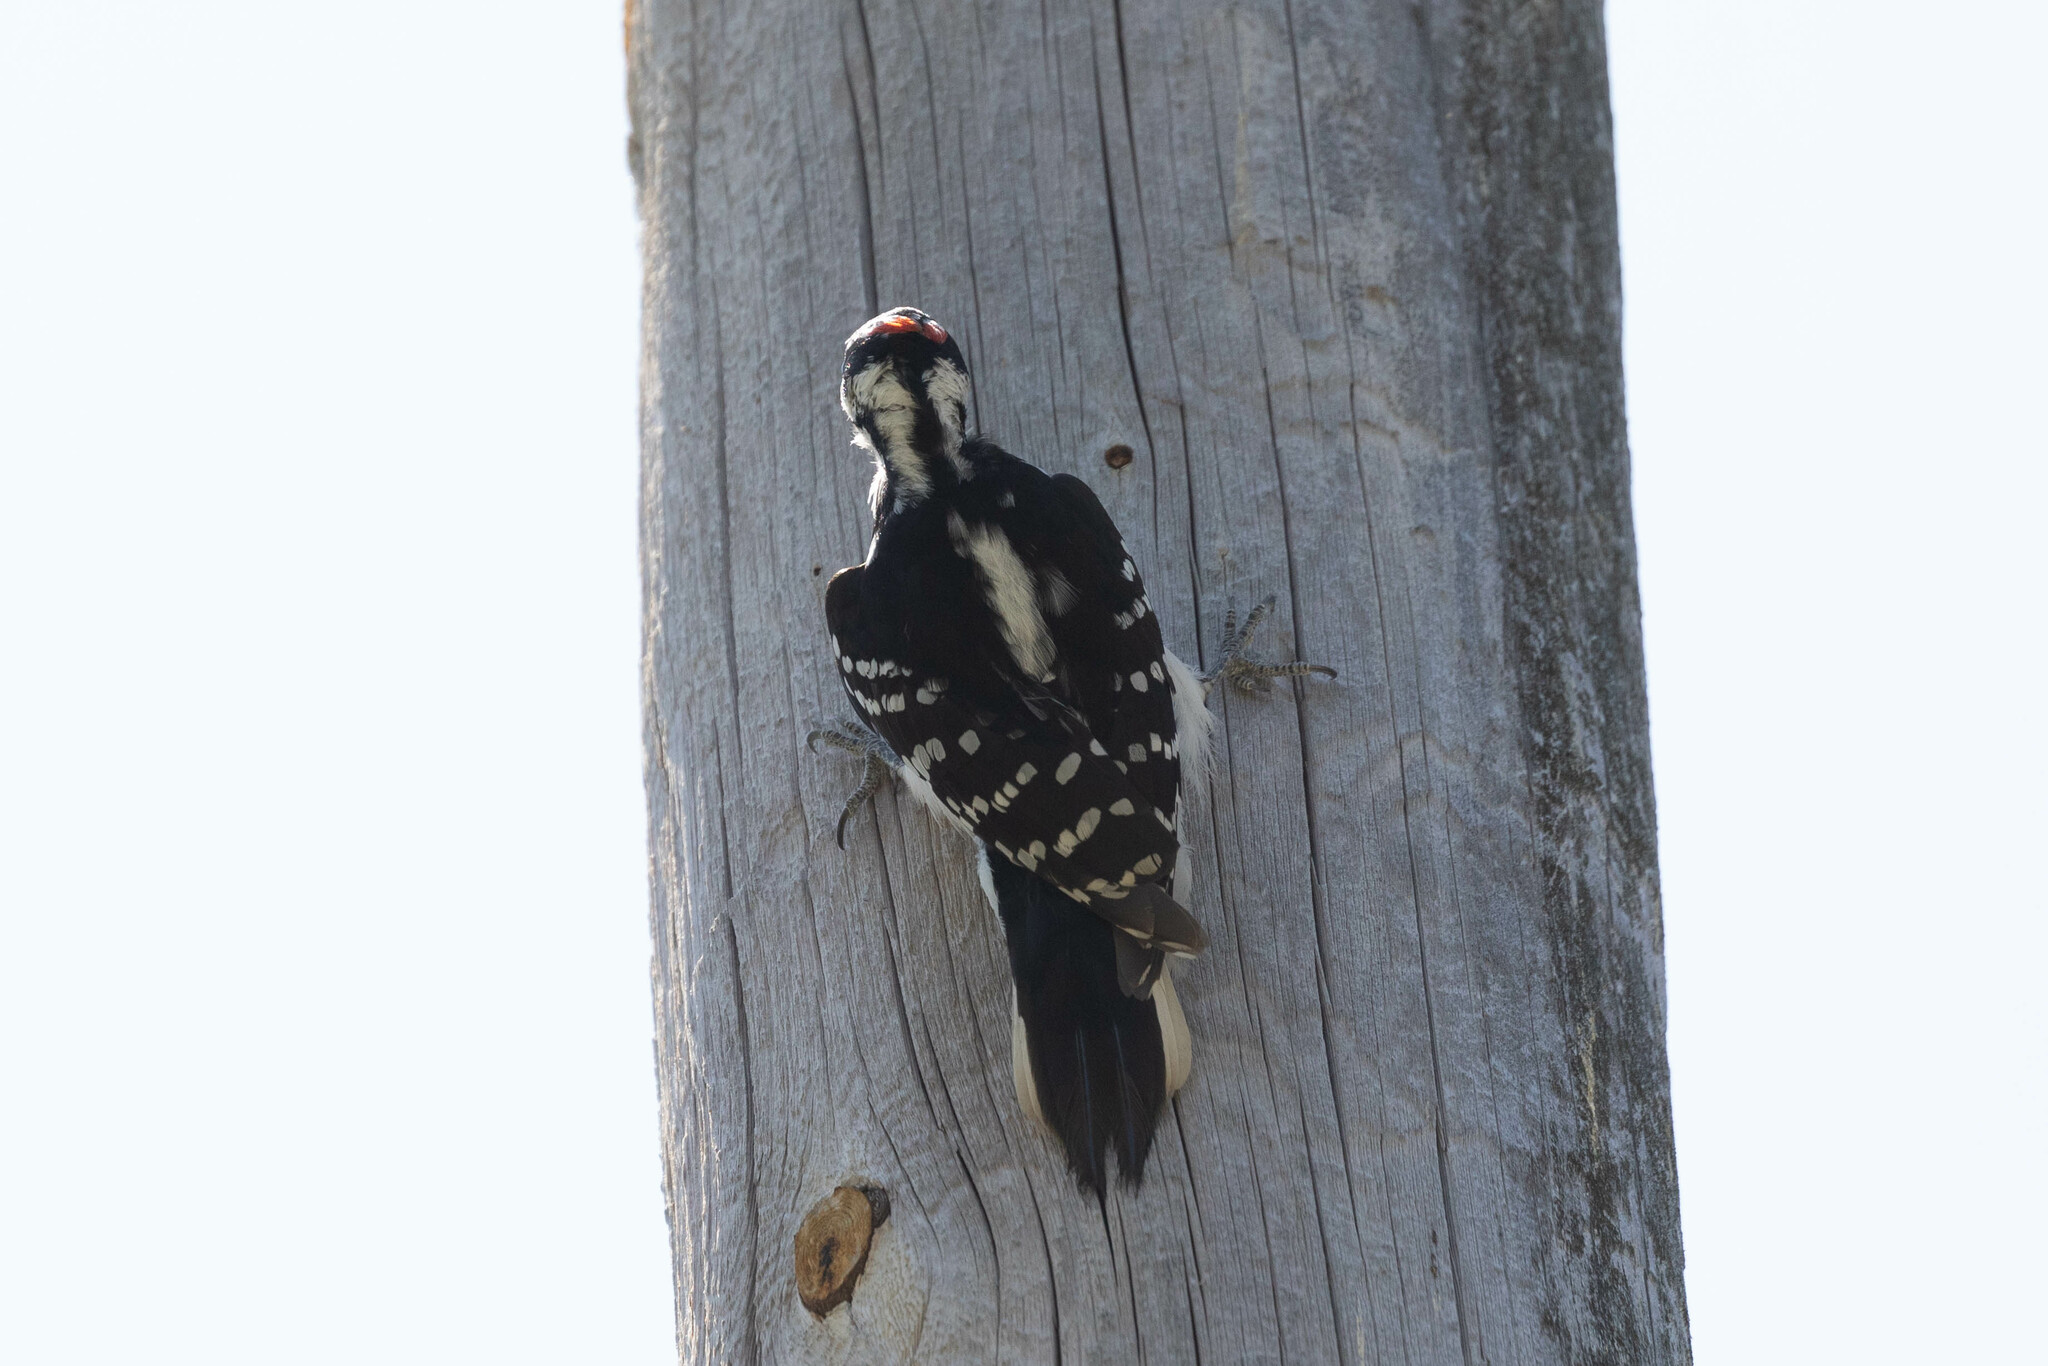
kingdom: Animalia
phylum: Chordata
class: Aves
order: Piciformes
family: Picidae
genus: Leuconotopicus
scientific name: Leuconotopicus villosus
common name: Hairy woodpecker
